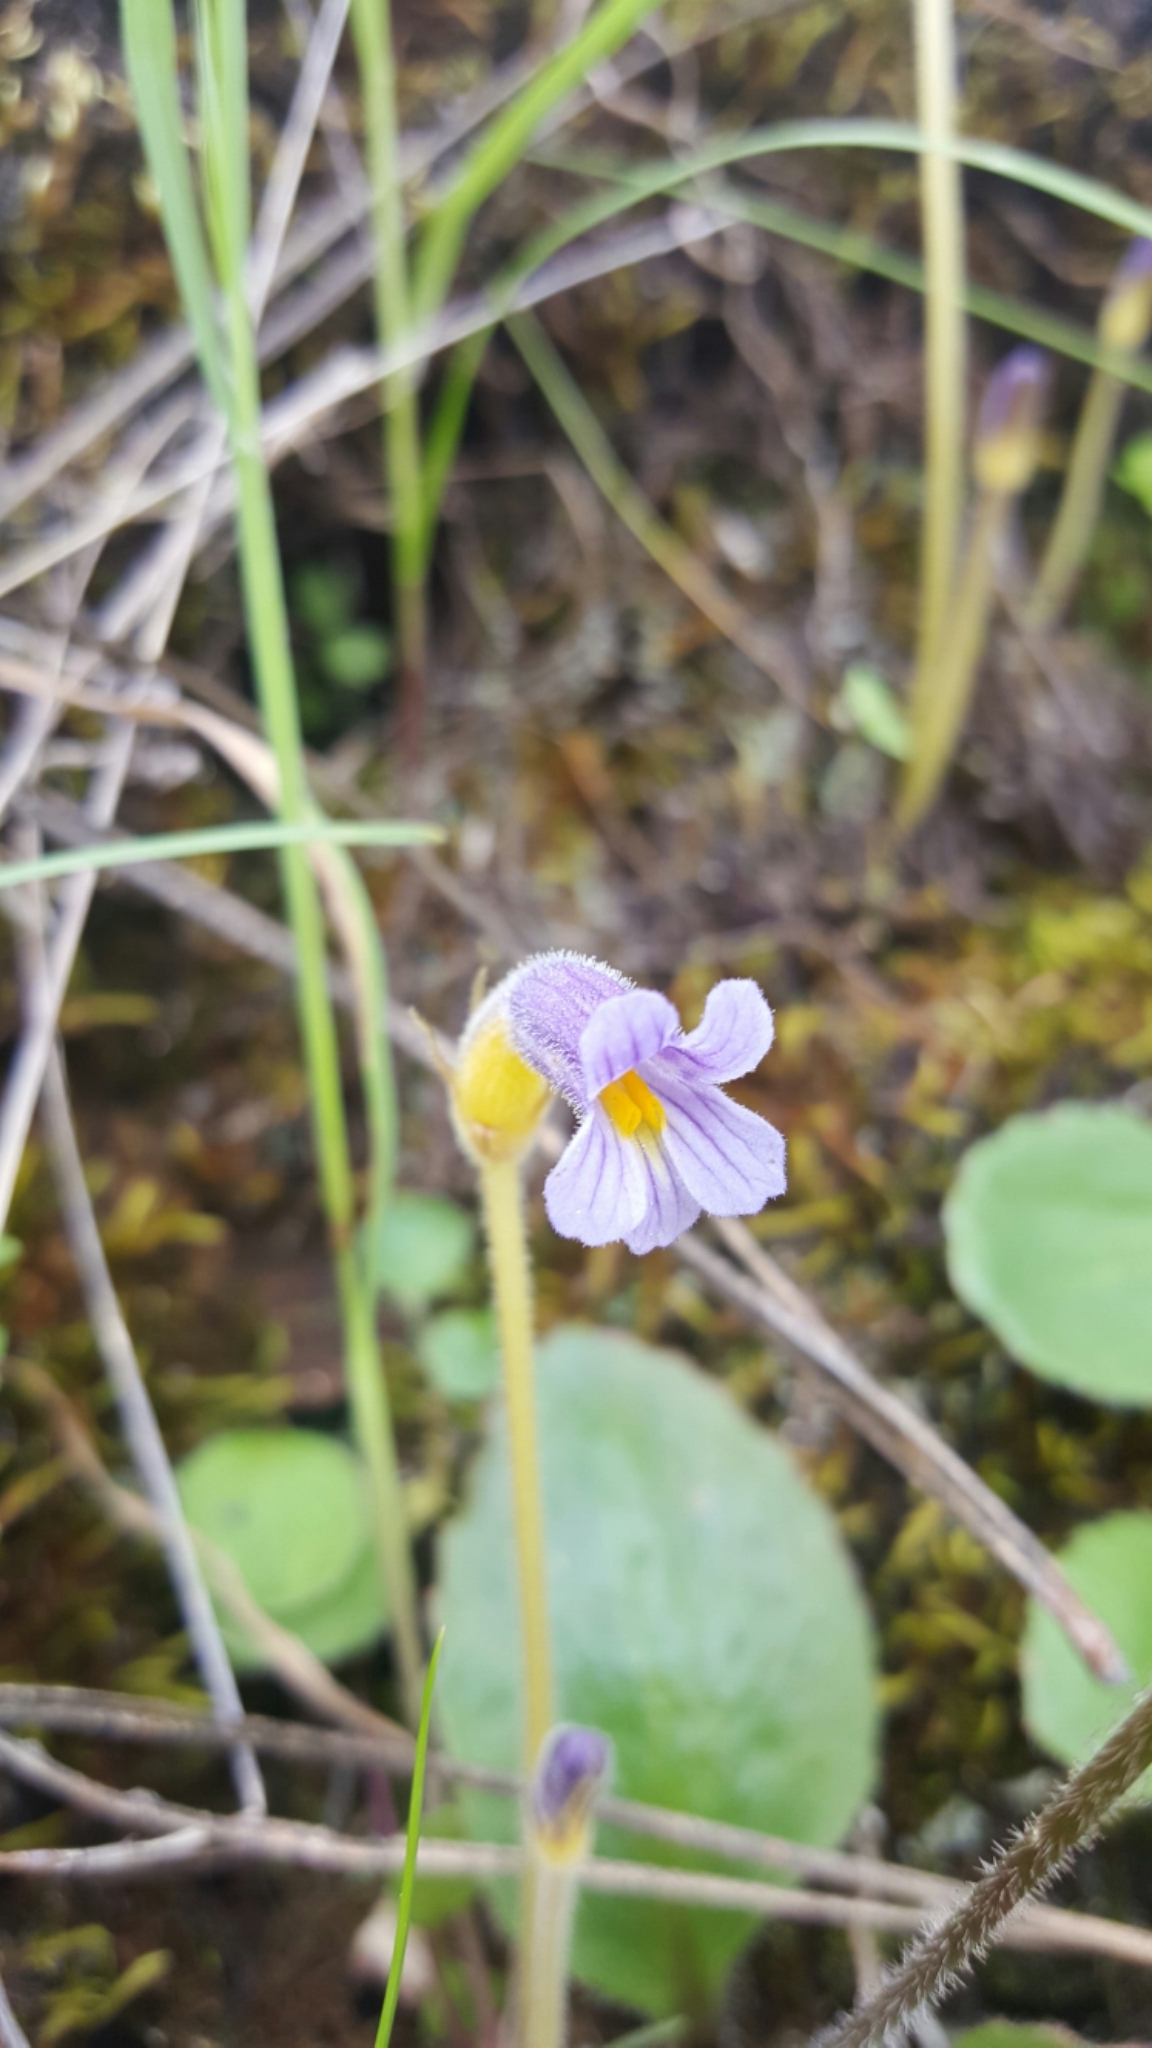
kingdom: Plantae
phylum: Tracheophyta
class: Magnoliopsida
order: Lamiales
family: Orobanchaceae
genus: Aphyllon
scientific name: Aphyllon uniflorum
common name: One-flowered broomrape
